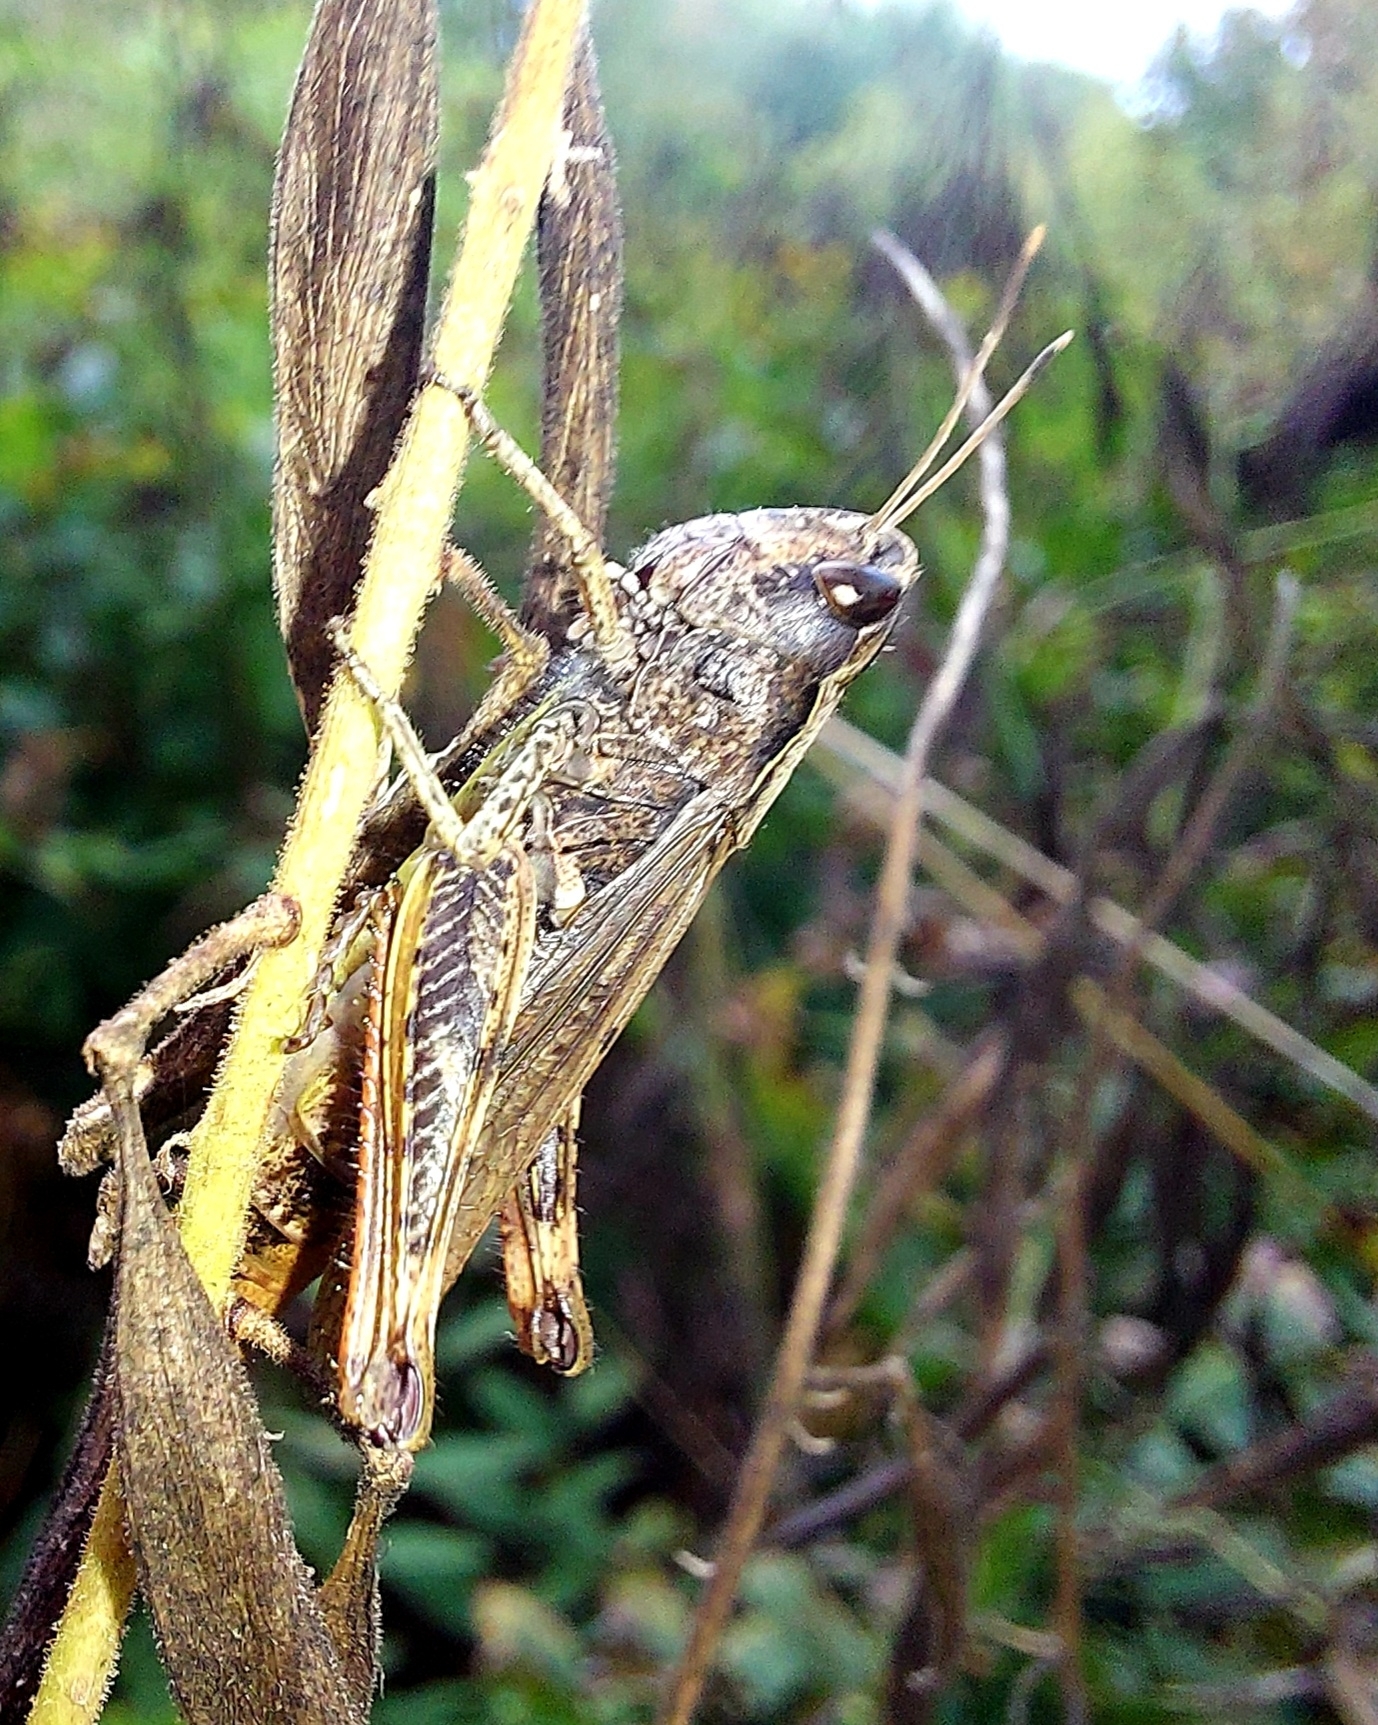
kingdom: Animalia
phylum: Arthropoda
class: Insecta
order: Orthoptera
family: Acrididae
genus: Gomphocerippus
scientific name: Gomphocerippus rufus
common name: Rufous grasshopper
